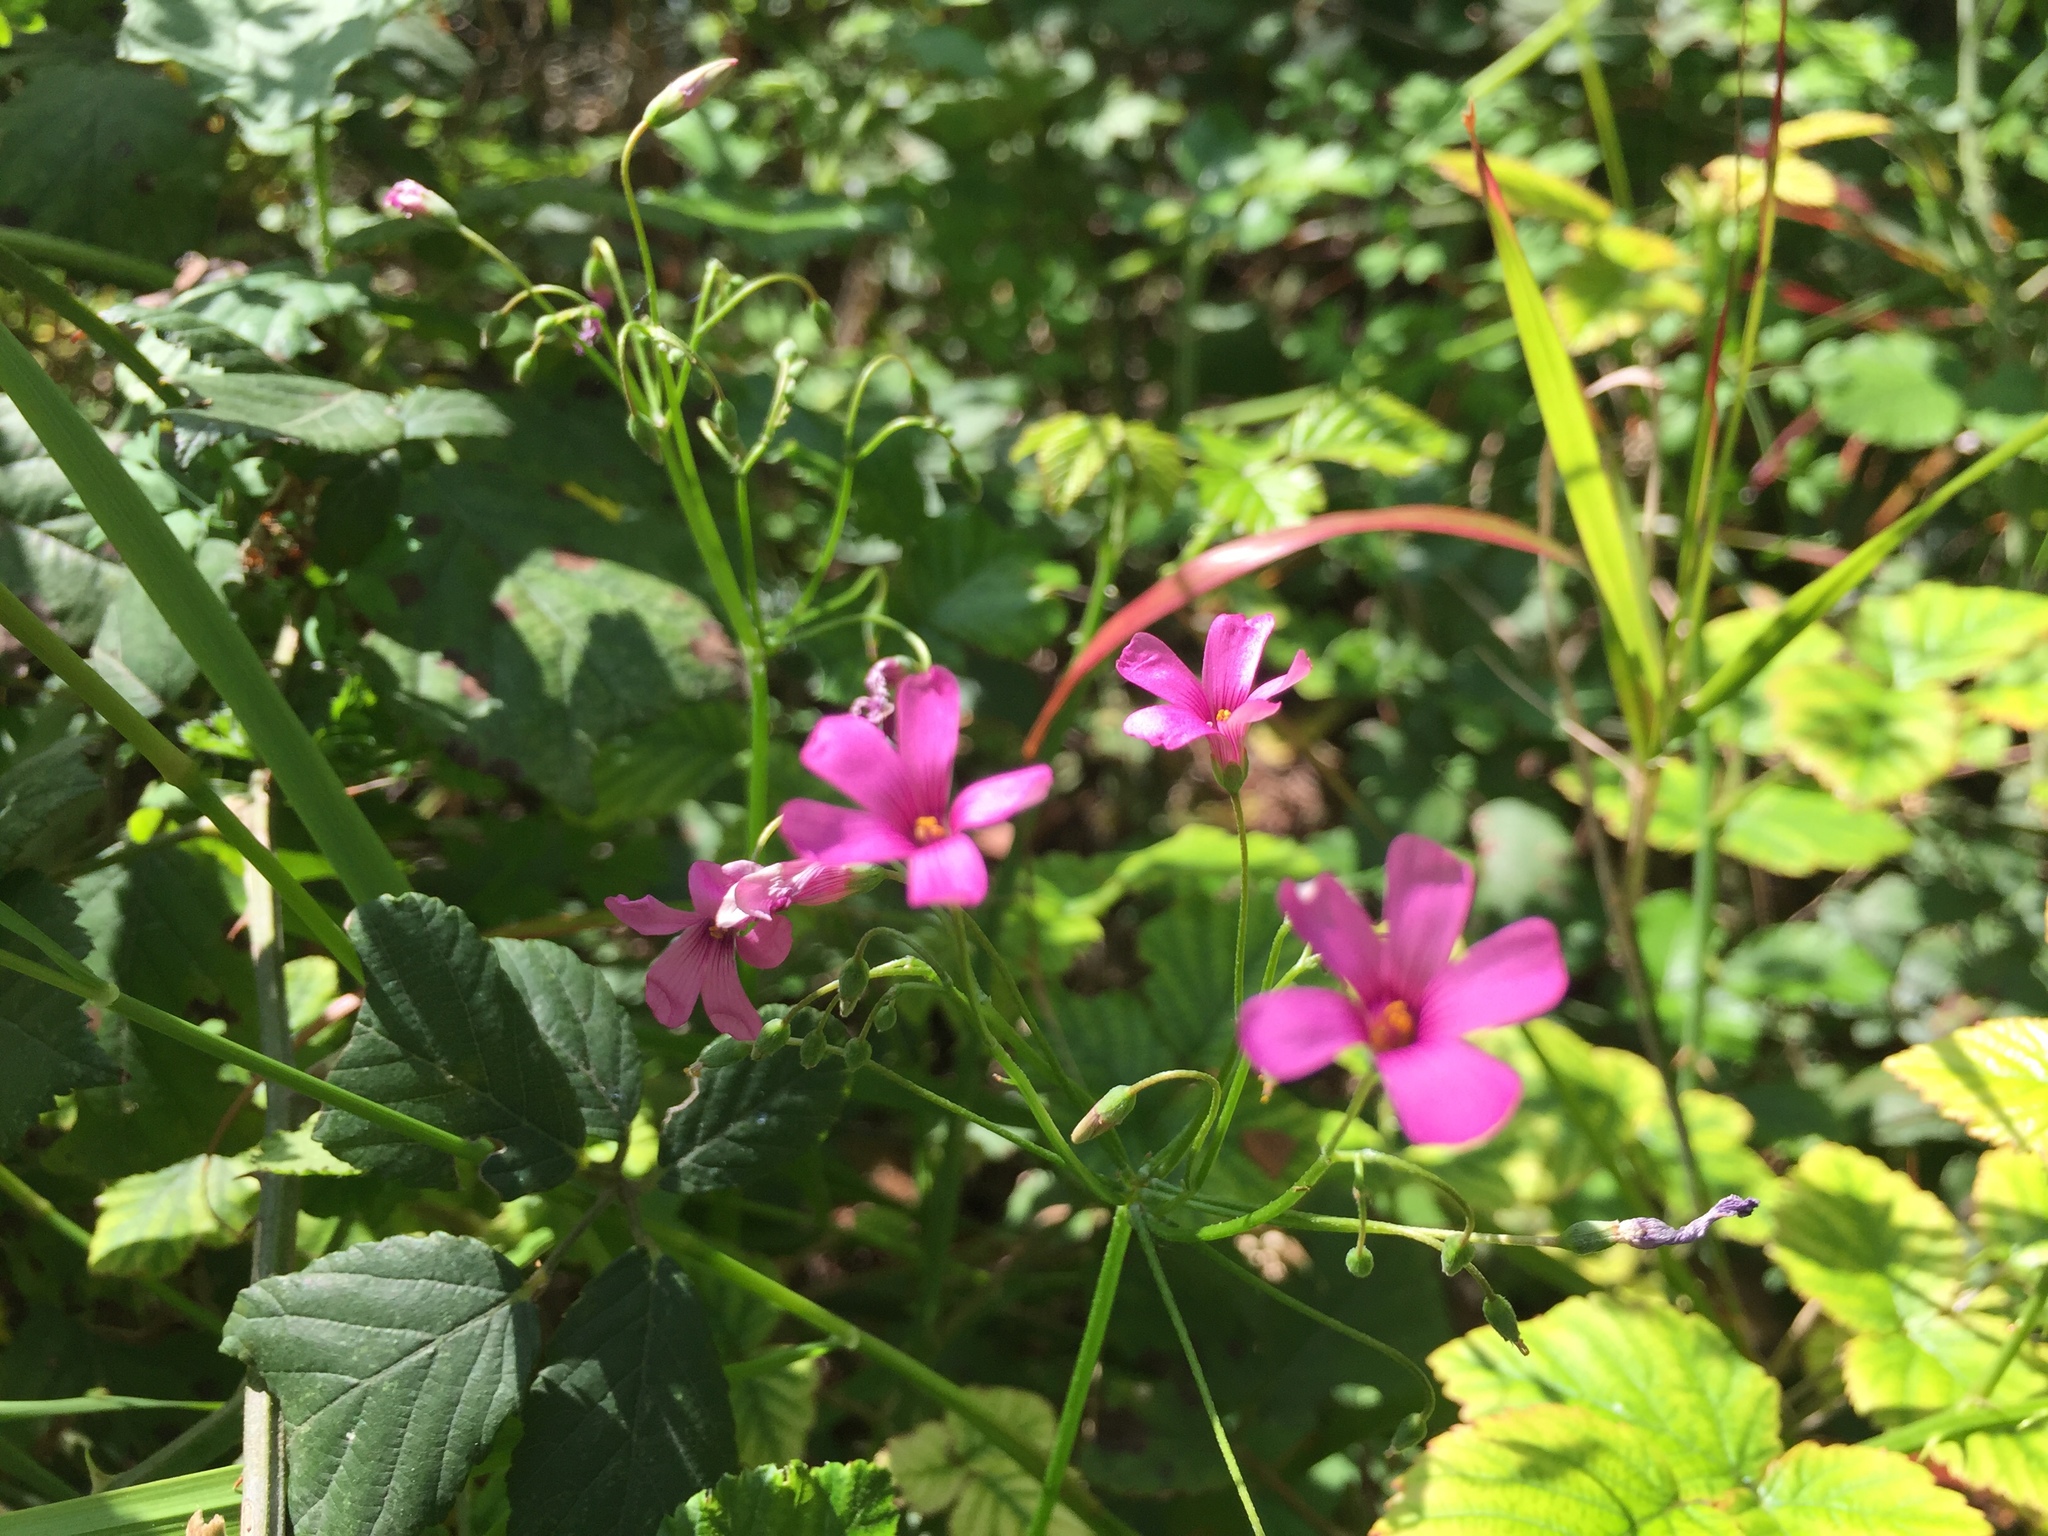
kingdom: Plantae
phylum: Tracheophyta
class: Magnoliopsida
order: Oxalidales
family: Oxalidaceae
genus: Oxalis
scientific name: Oxalis articulata
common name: Pink-sorrel
